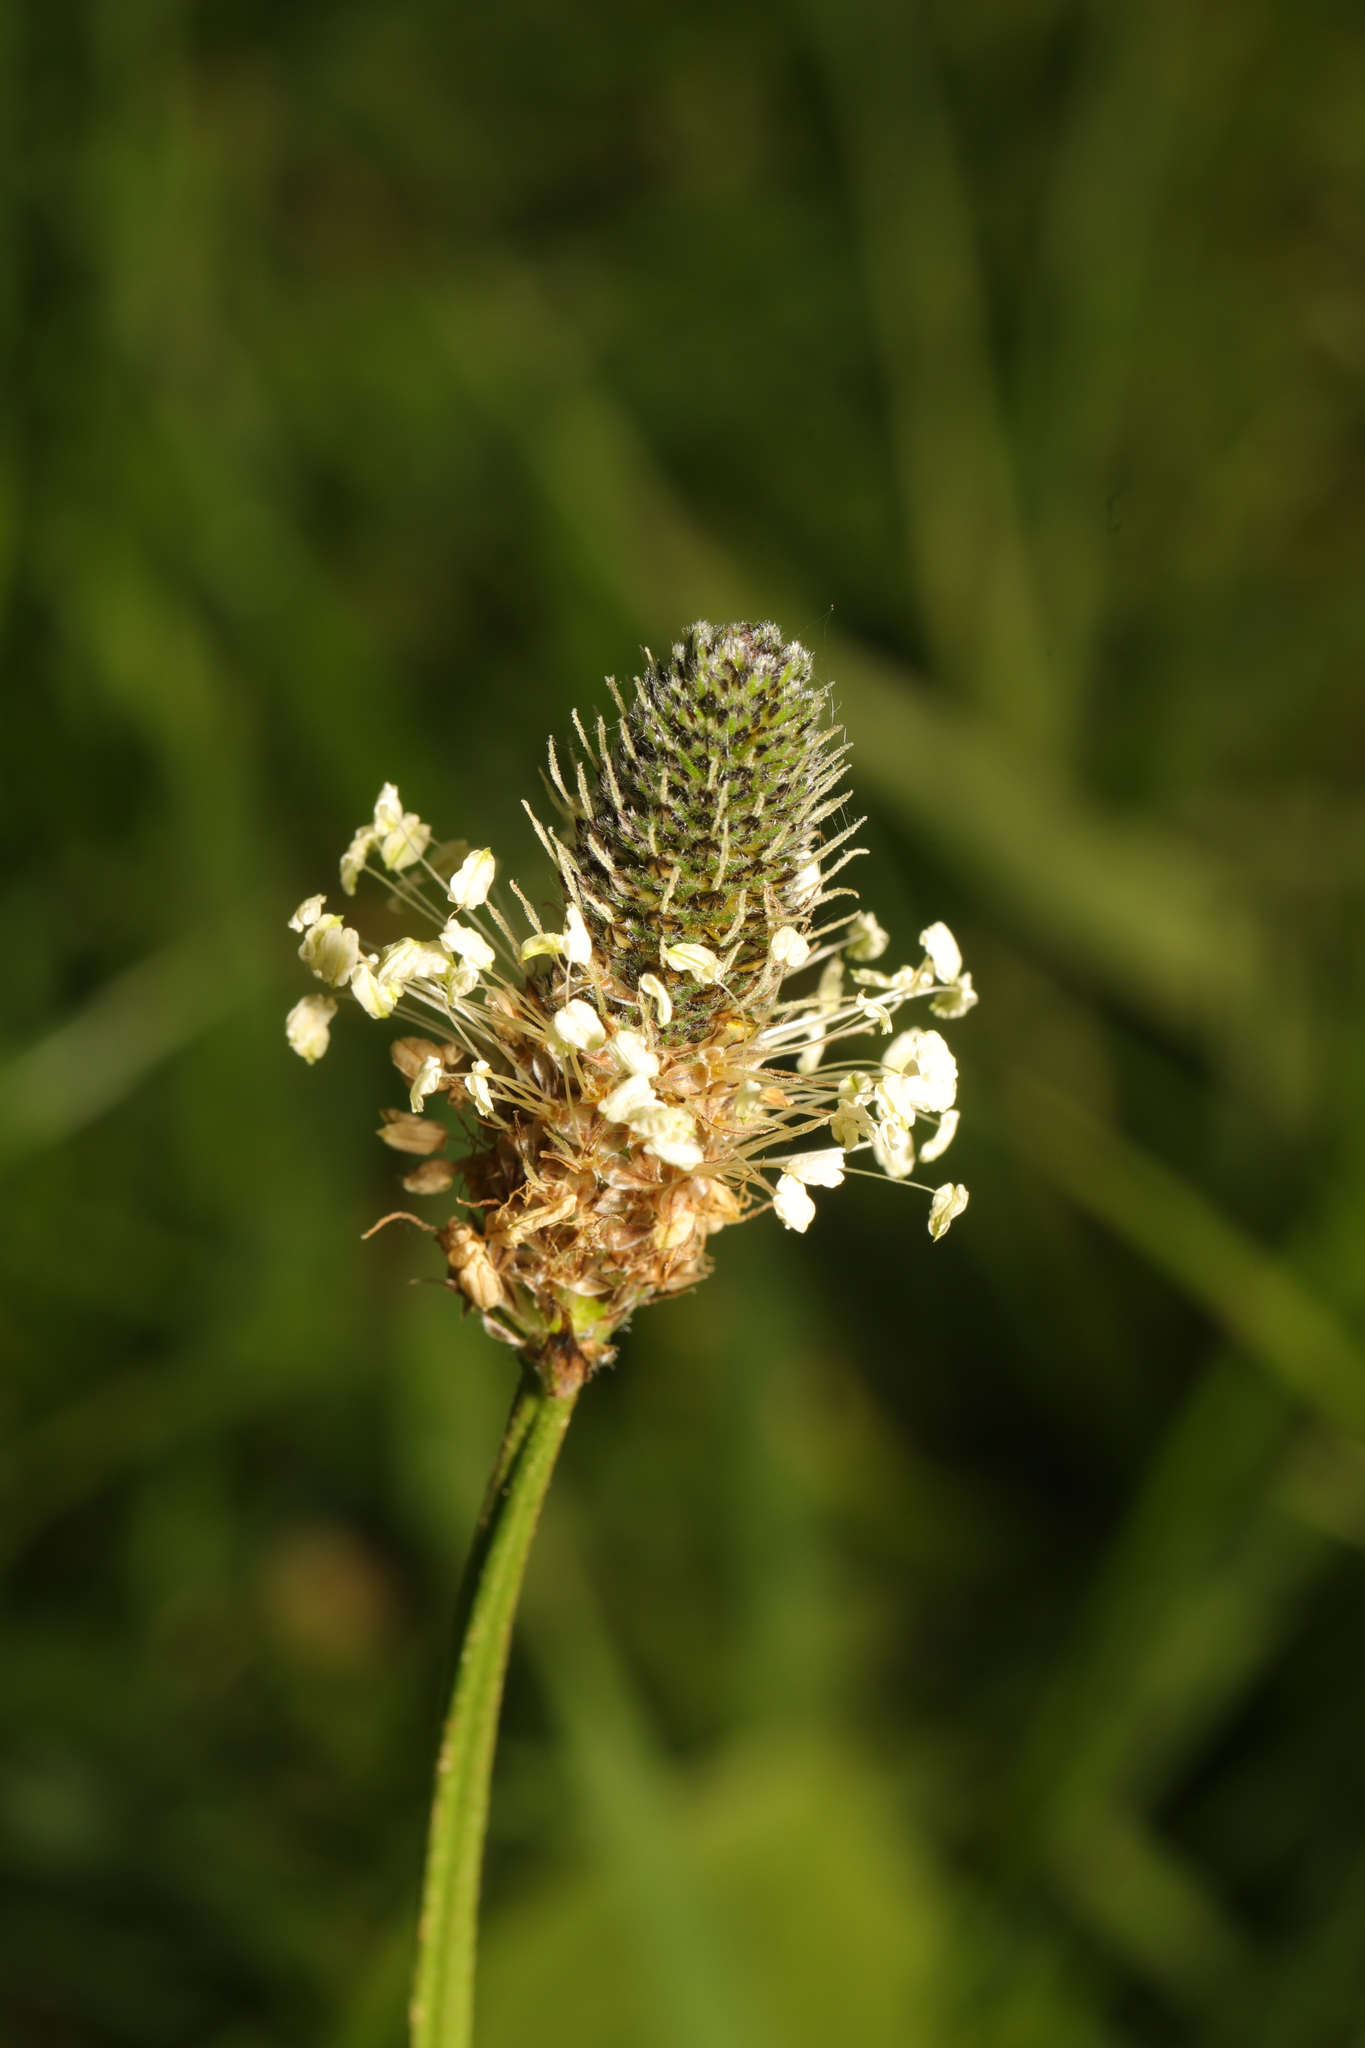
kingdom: Plantae
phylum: Tracheophyta
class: Magnoliopsida
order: Lamiales
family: Plantaginaceae
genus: Plantago
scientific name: Plantago lanceolata
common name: Ribwort plantain
